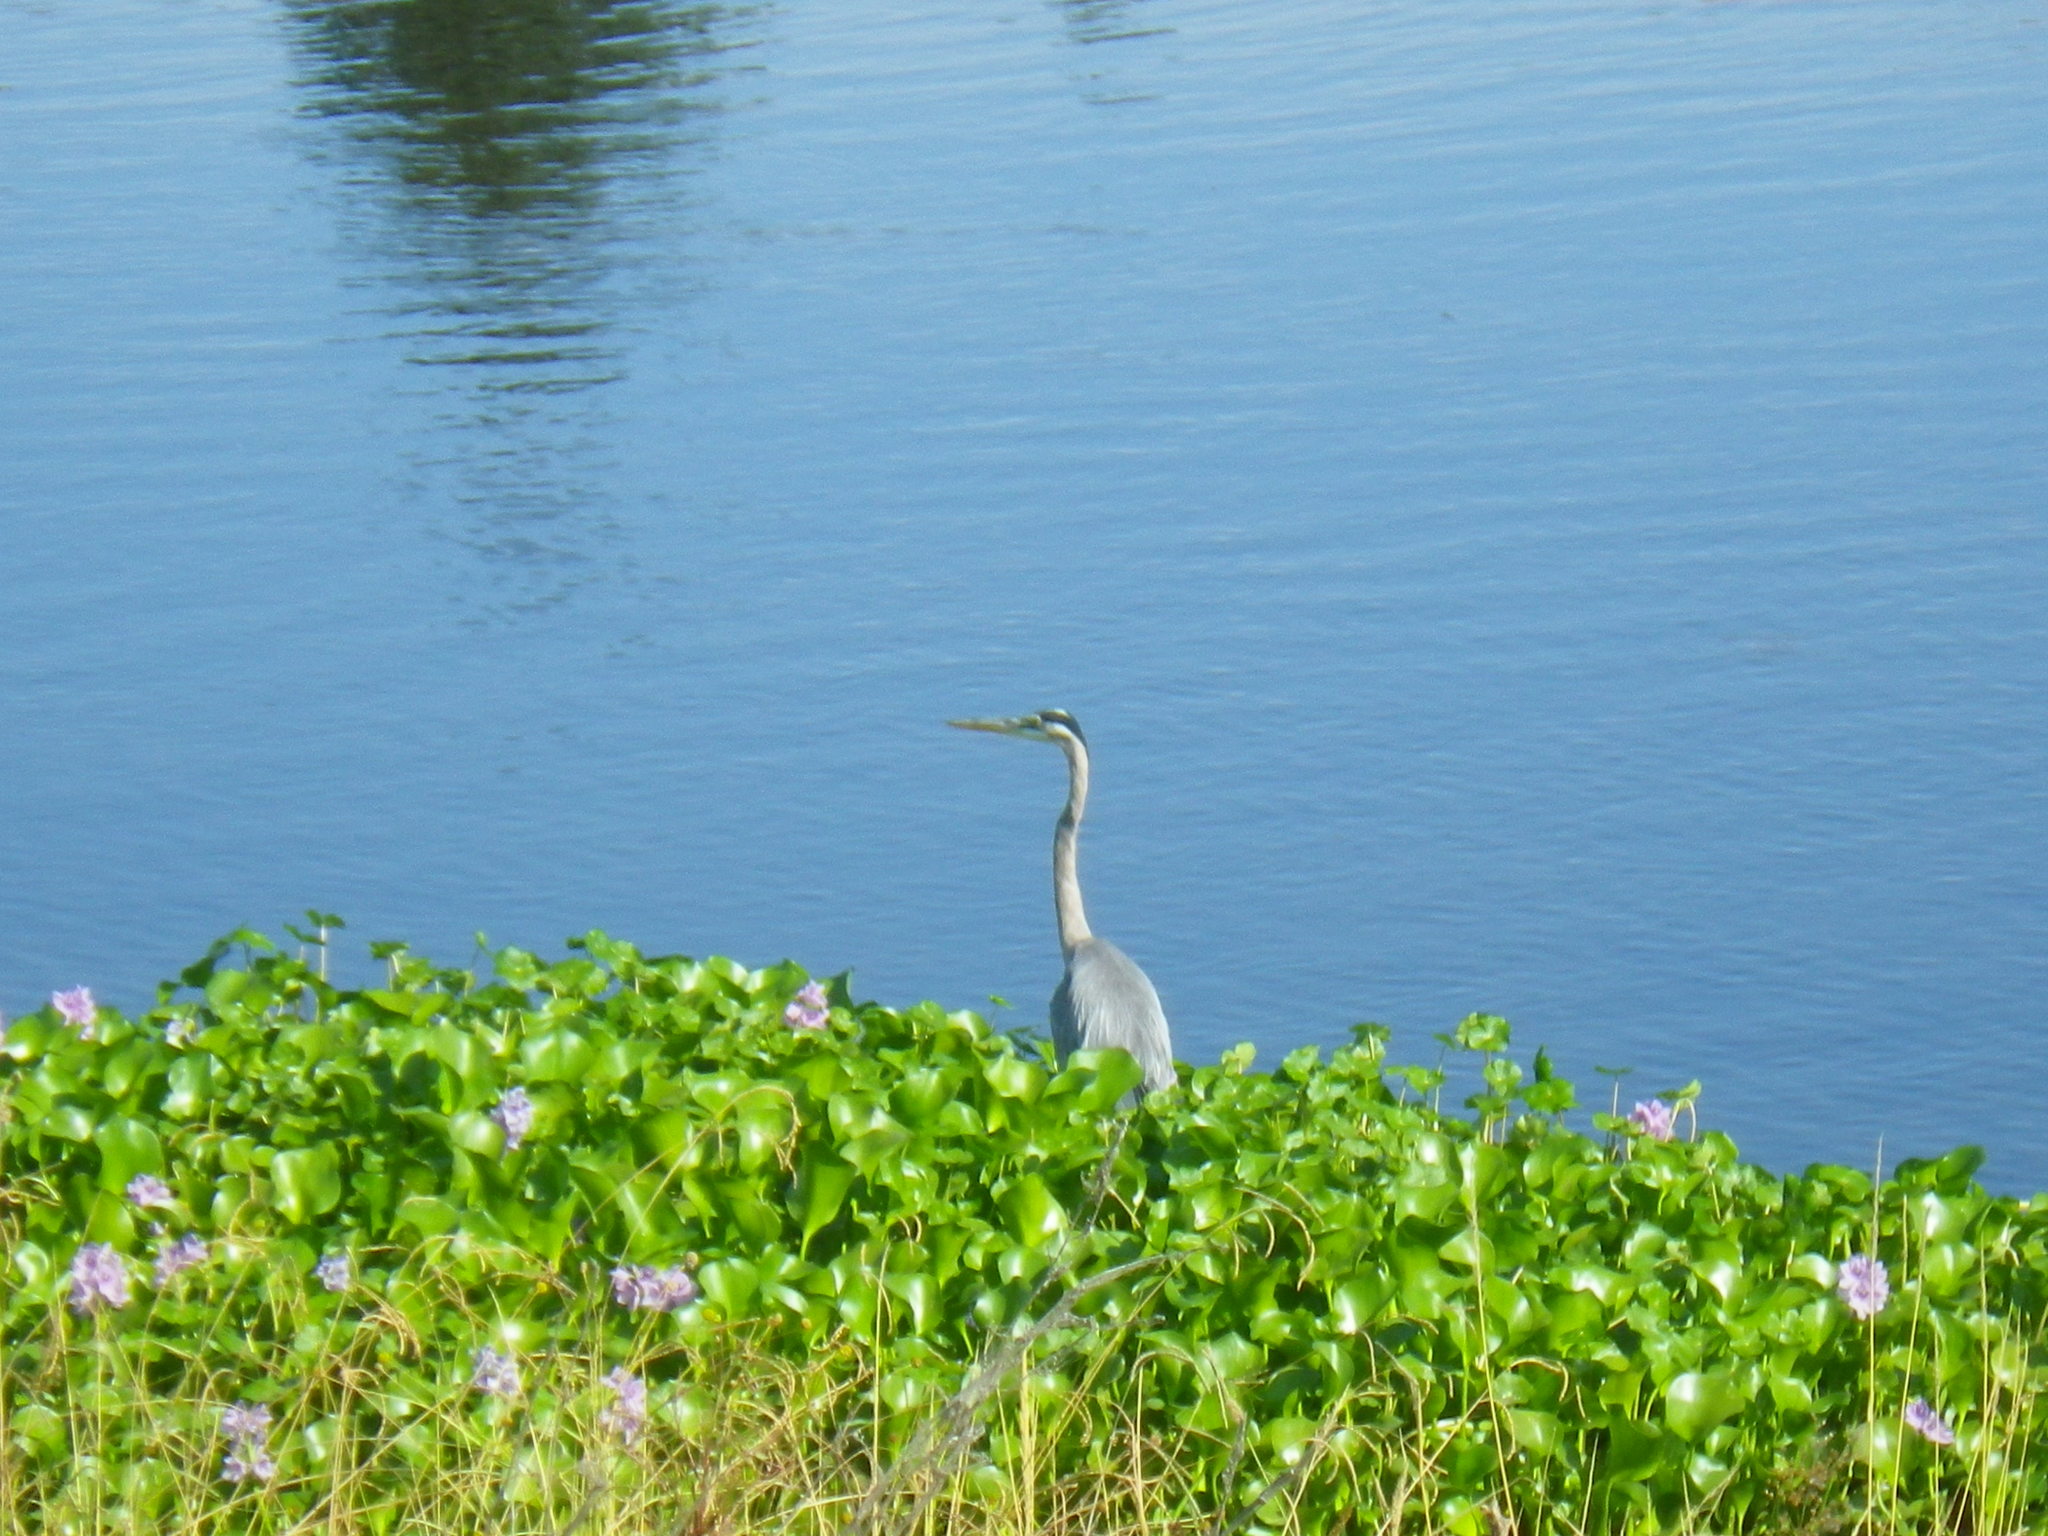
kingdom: Animalia
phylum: Chordata
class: Aves
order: Pelecaniformes
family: Ardeidae
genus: Ardea
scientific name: Ardea herodias
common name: Great blue heron
